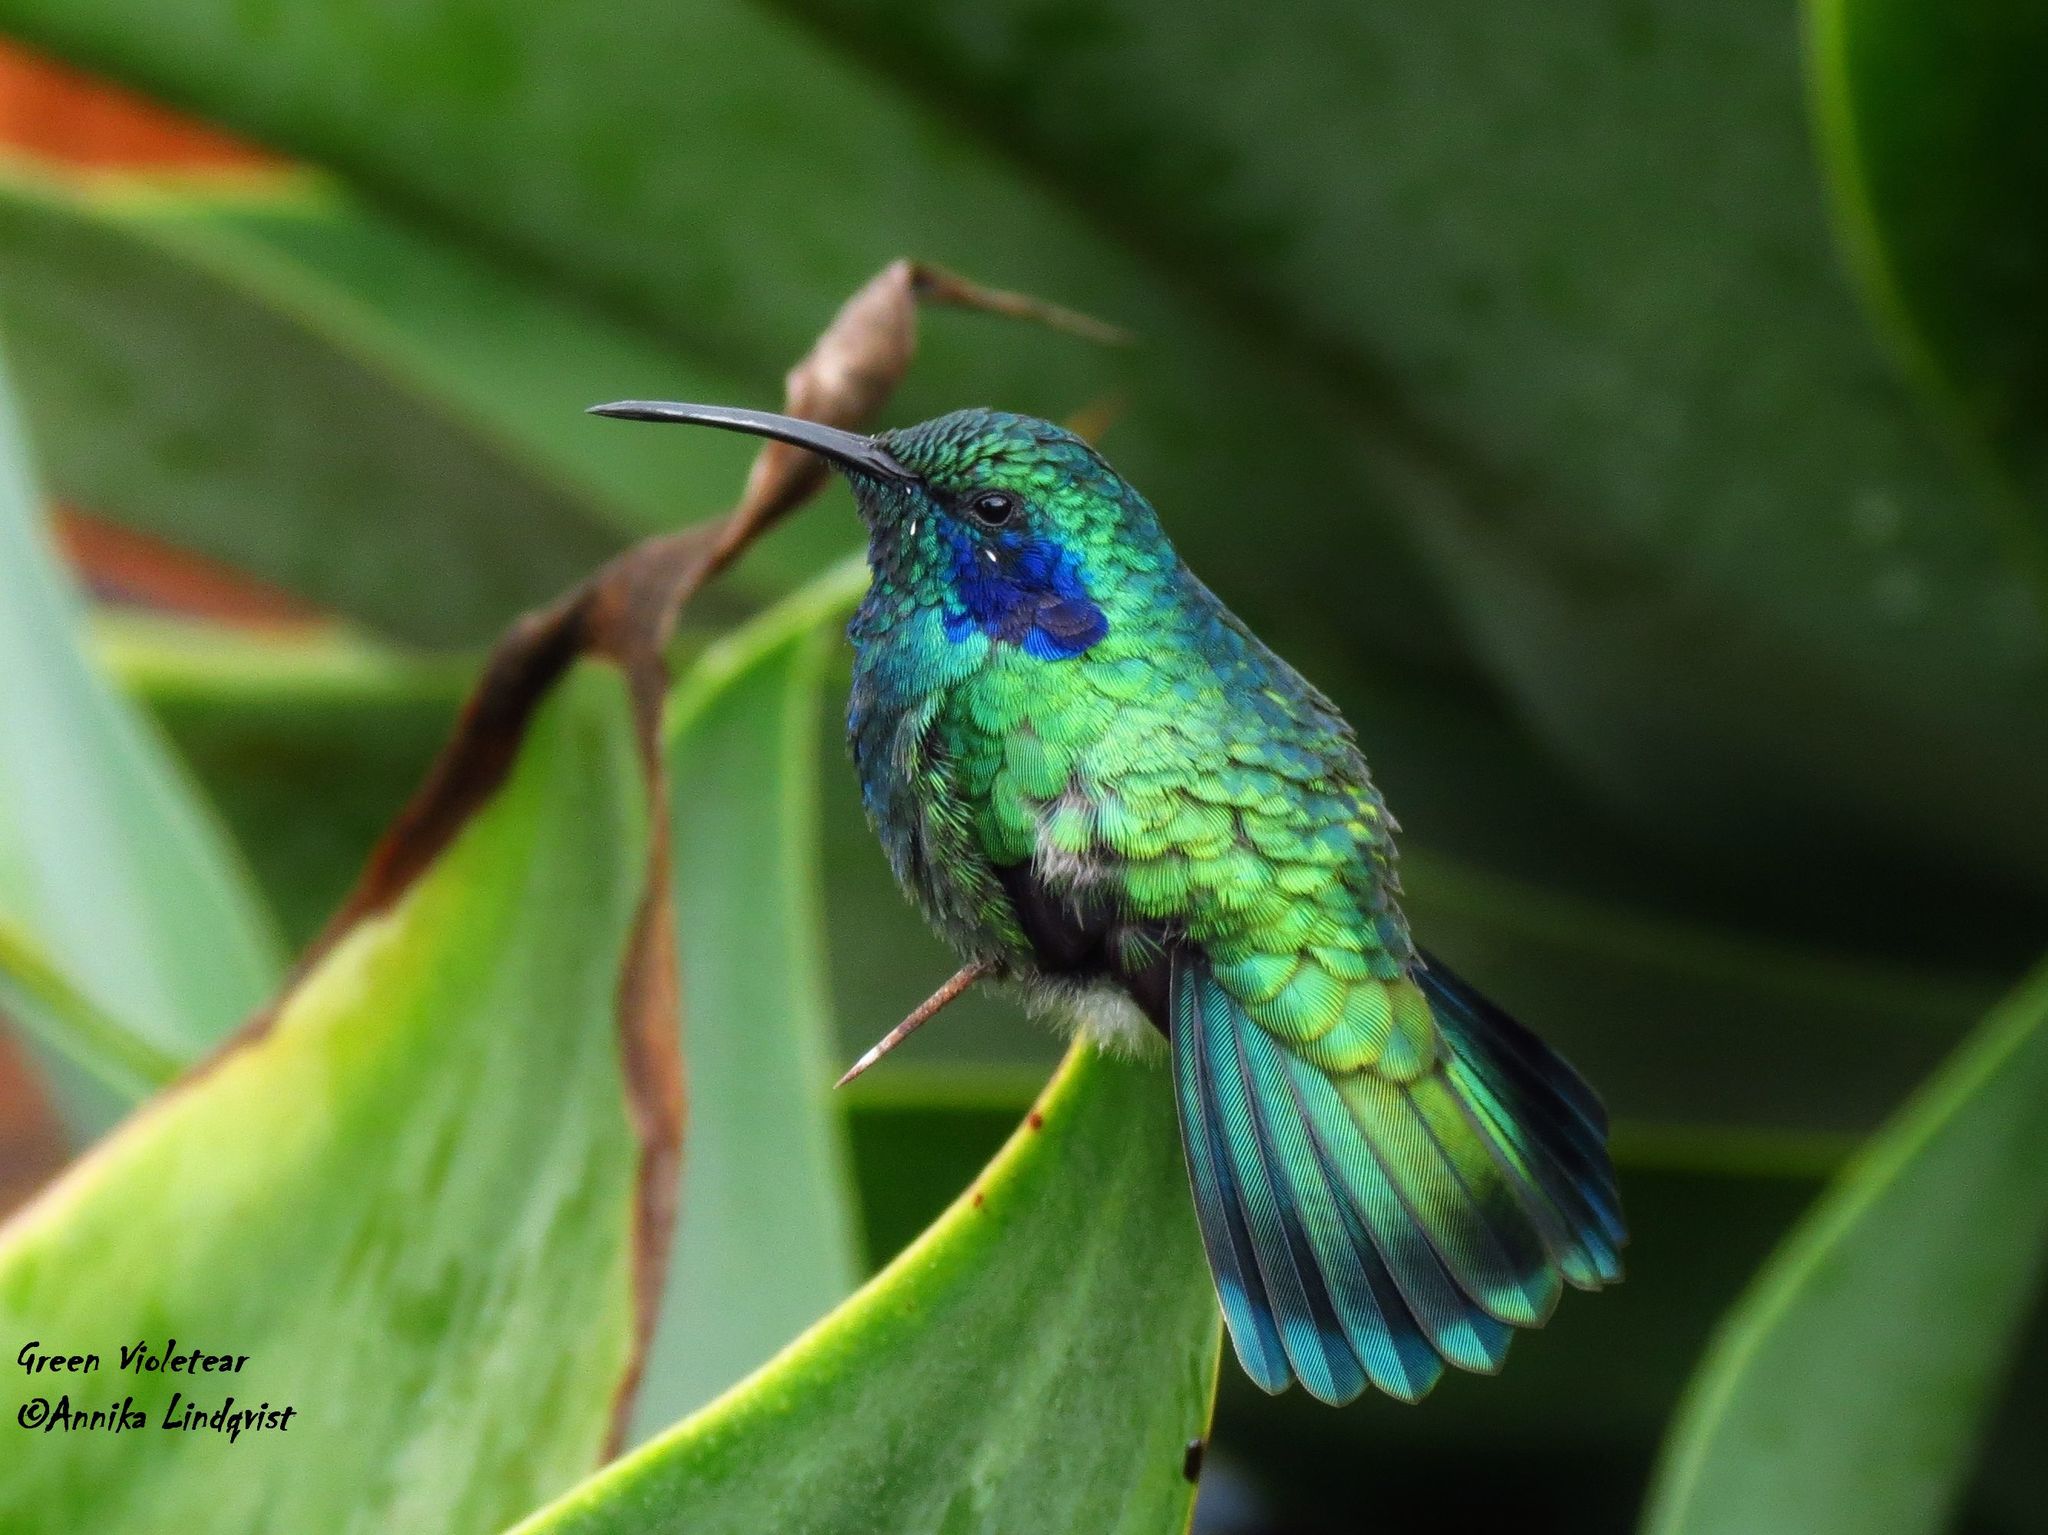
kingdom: Animalia
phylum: Chordata
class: Aves
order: Apodiformes
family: Trochilidae
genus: Colibri
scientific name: Colibri cyanotus
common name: Lesser violetear
